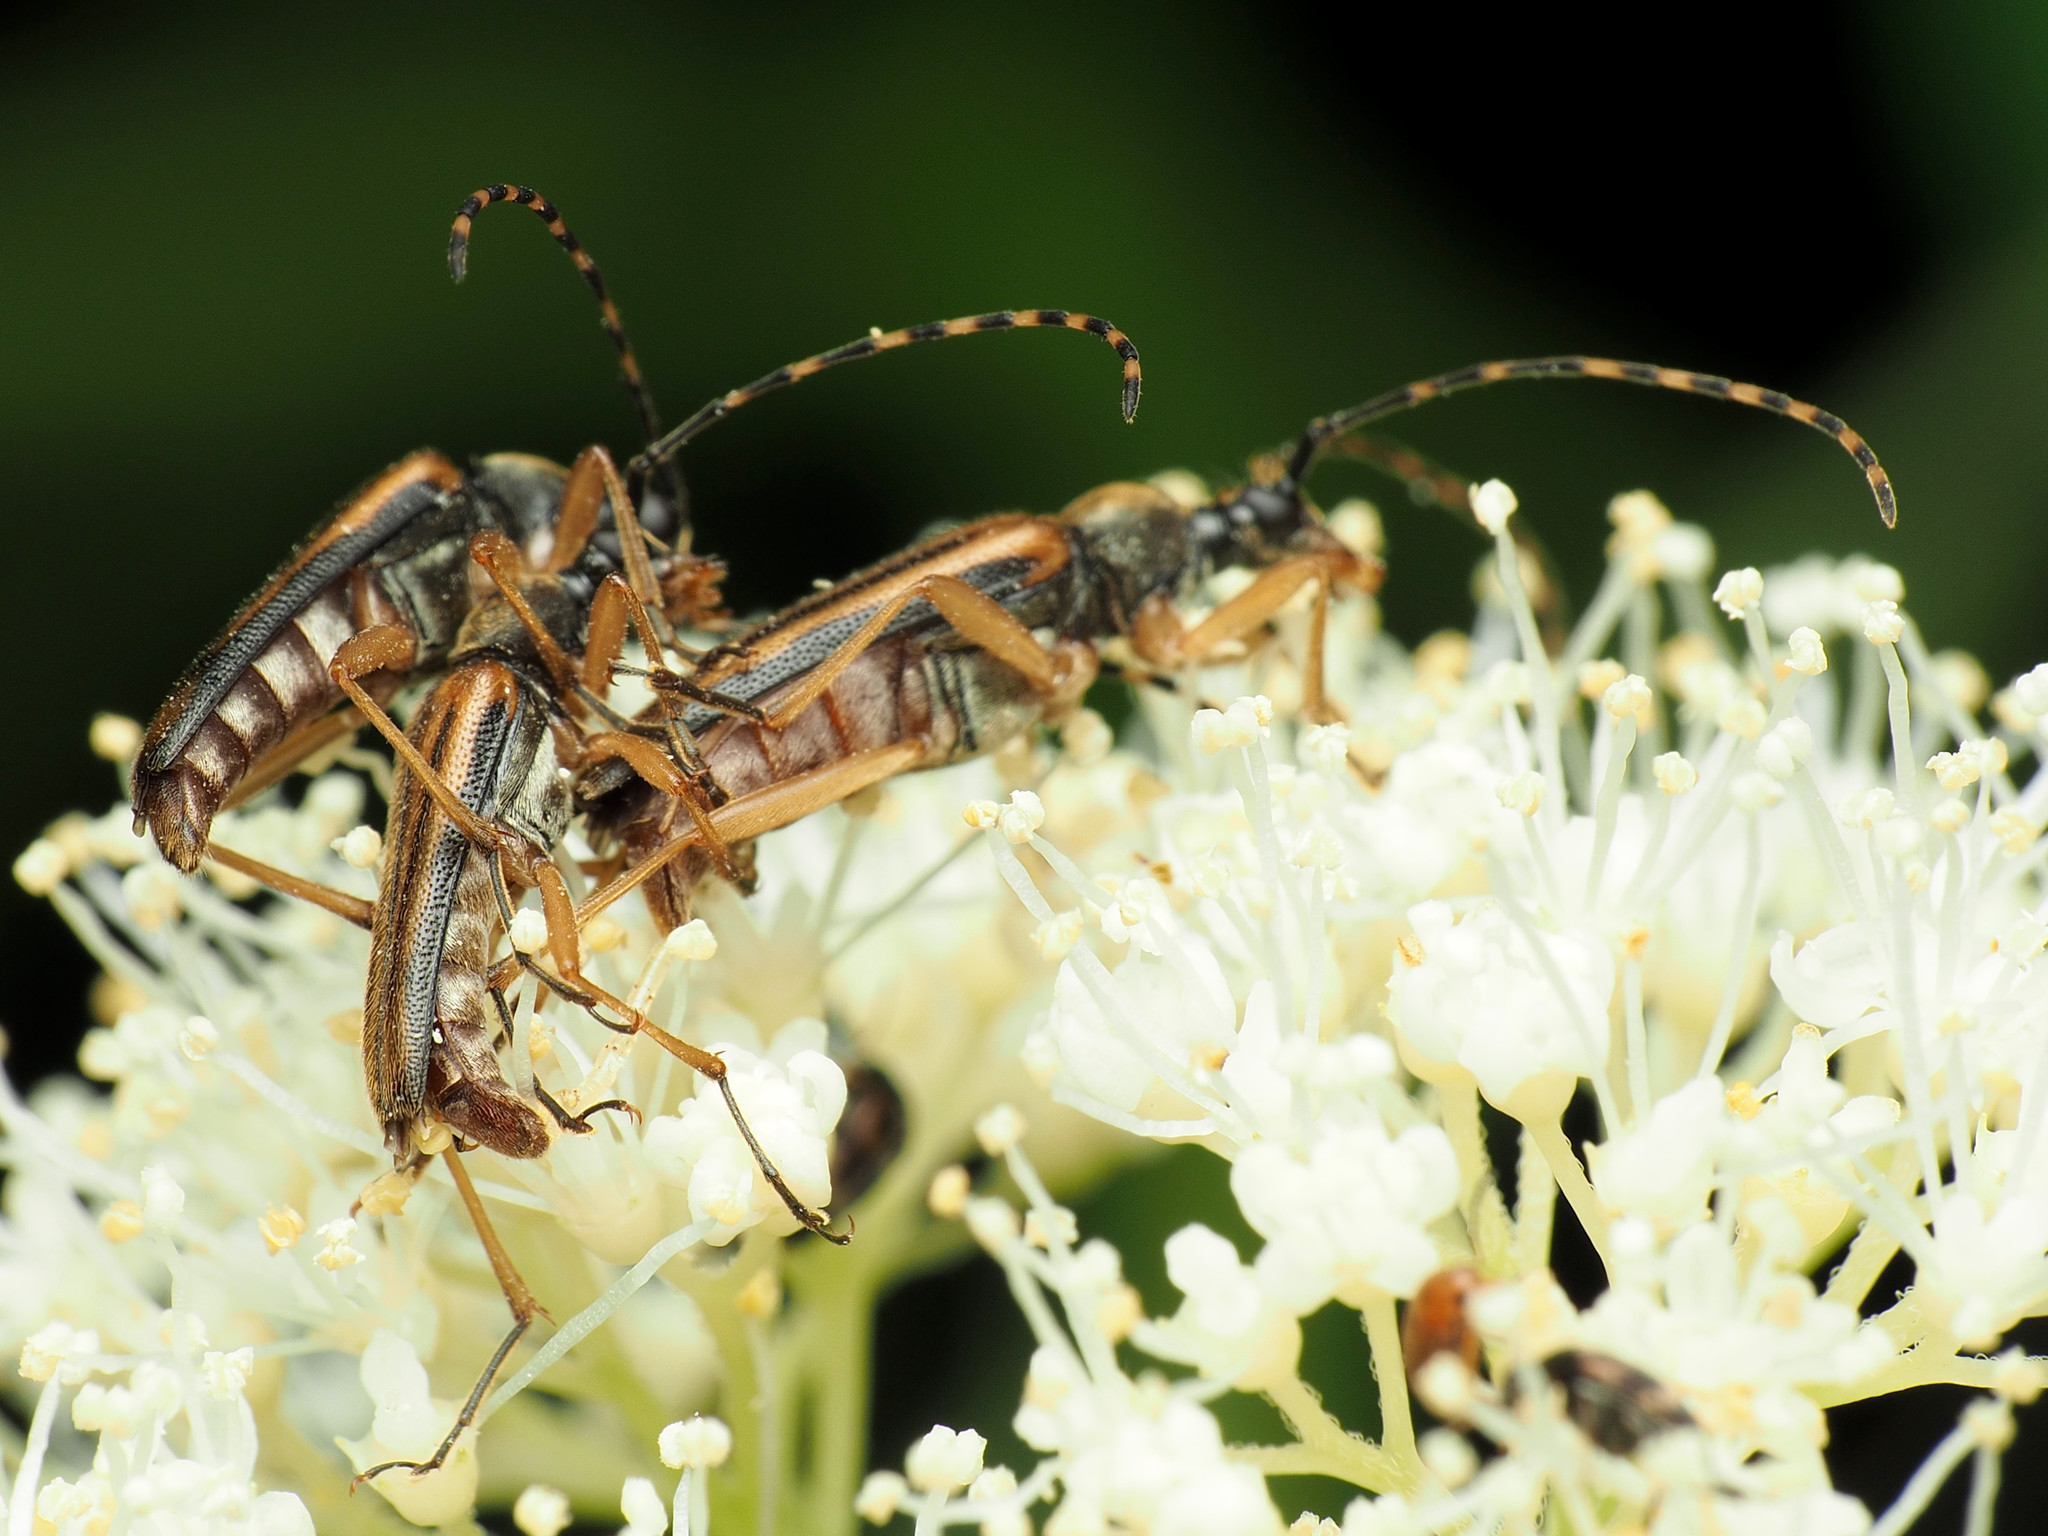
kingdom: Animalia
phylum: Arthropoda
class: Insecta
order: Coleoptera
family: Cerambycidae
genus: Analeptura
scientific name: Analeptura lineola
